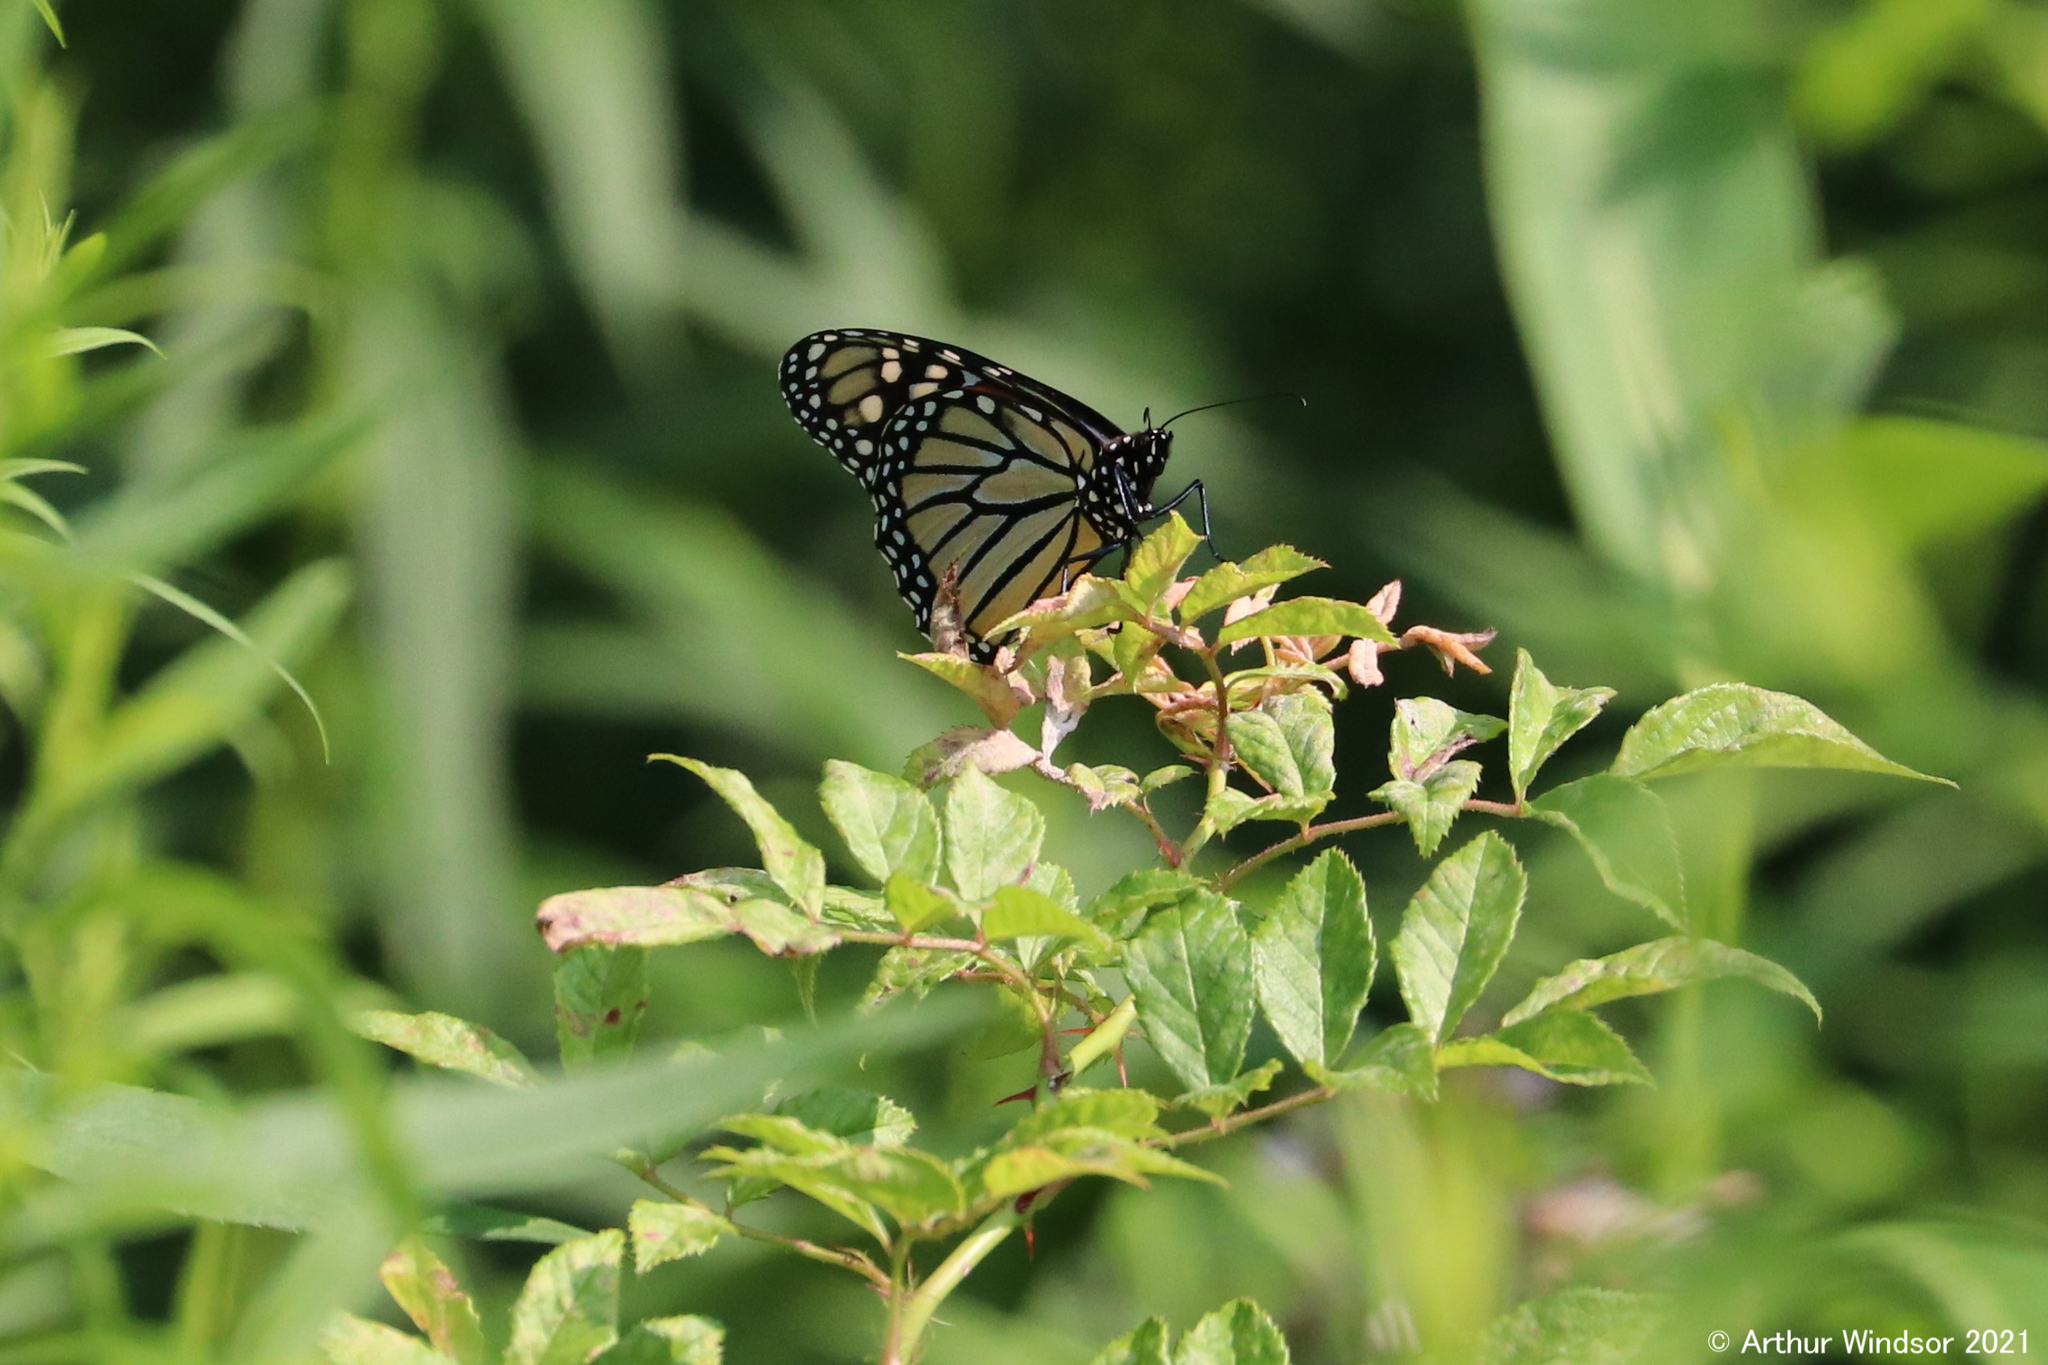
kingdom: Animalia
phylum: Arthropoda
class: Insecta
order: Lepidoptera
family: Nymphalidae
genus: Danaus
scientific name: Danaus plexippus
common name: Monarch
